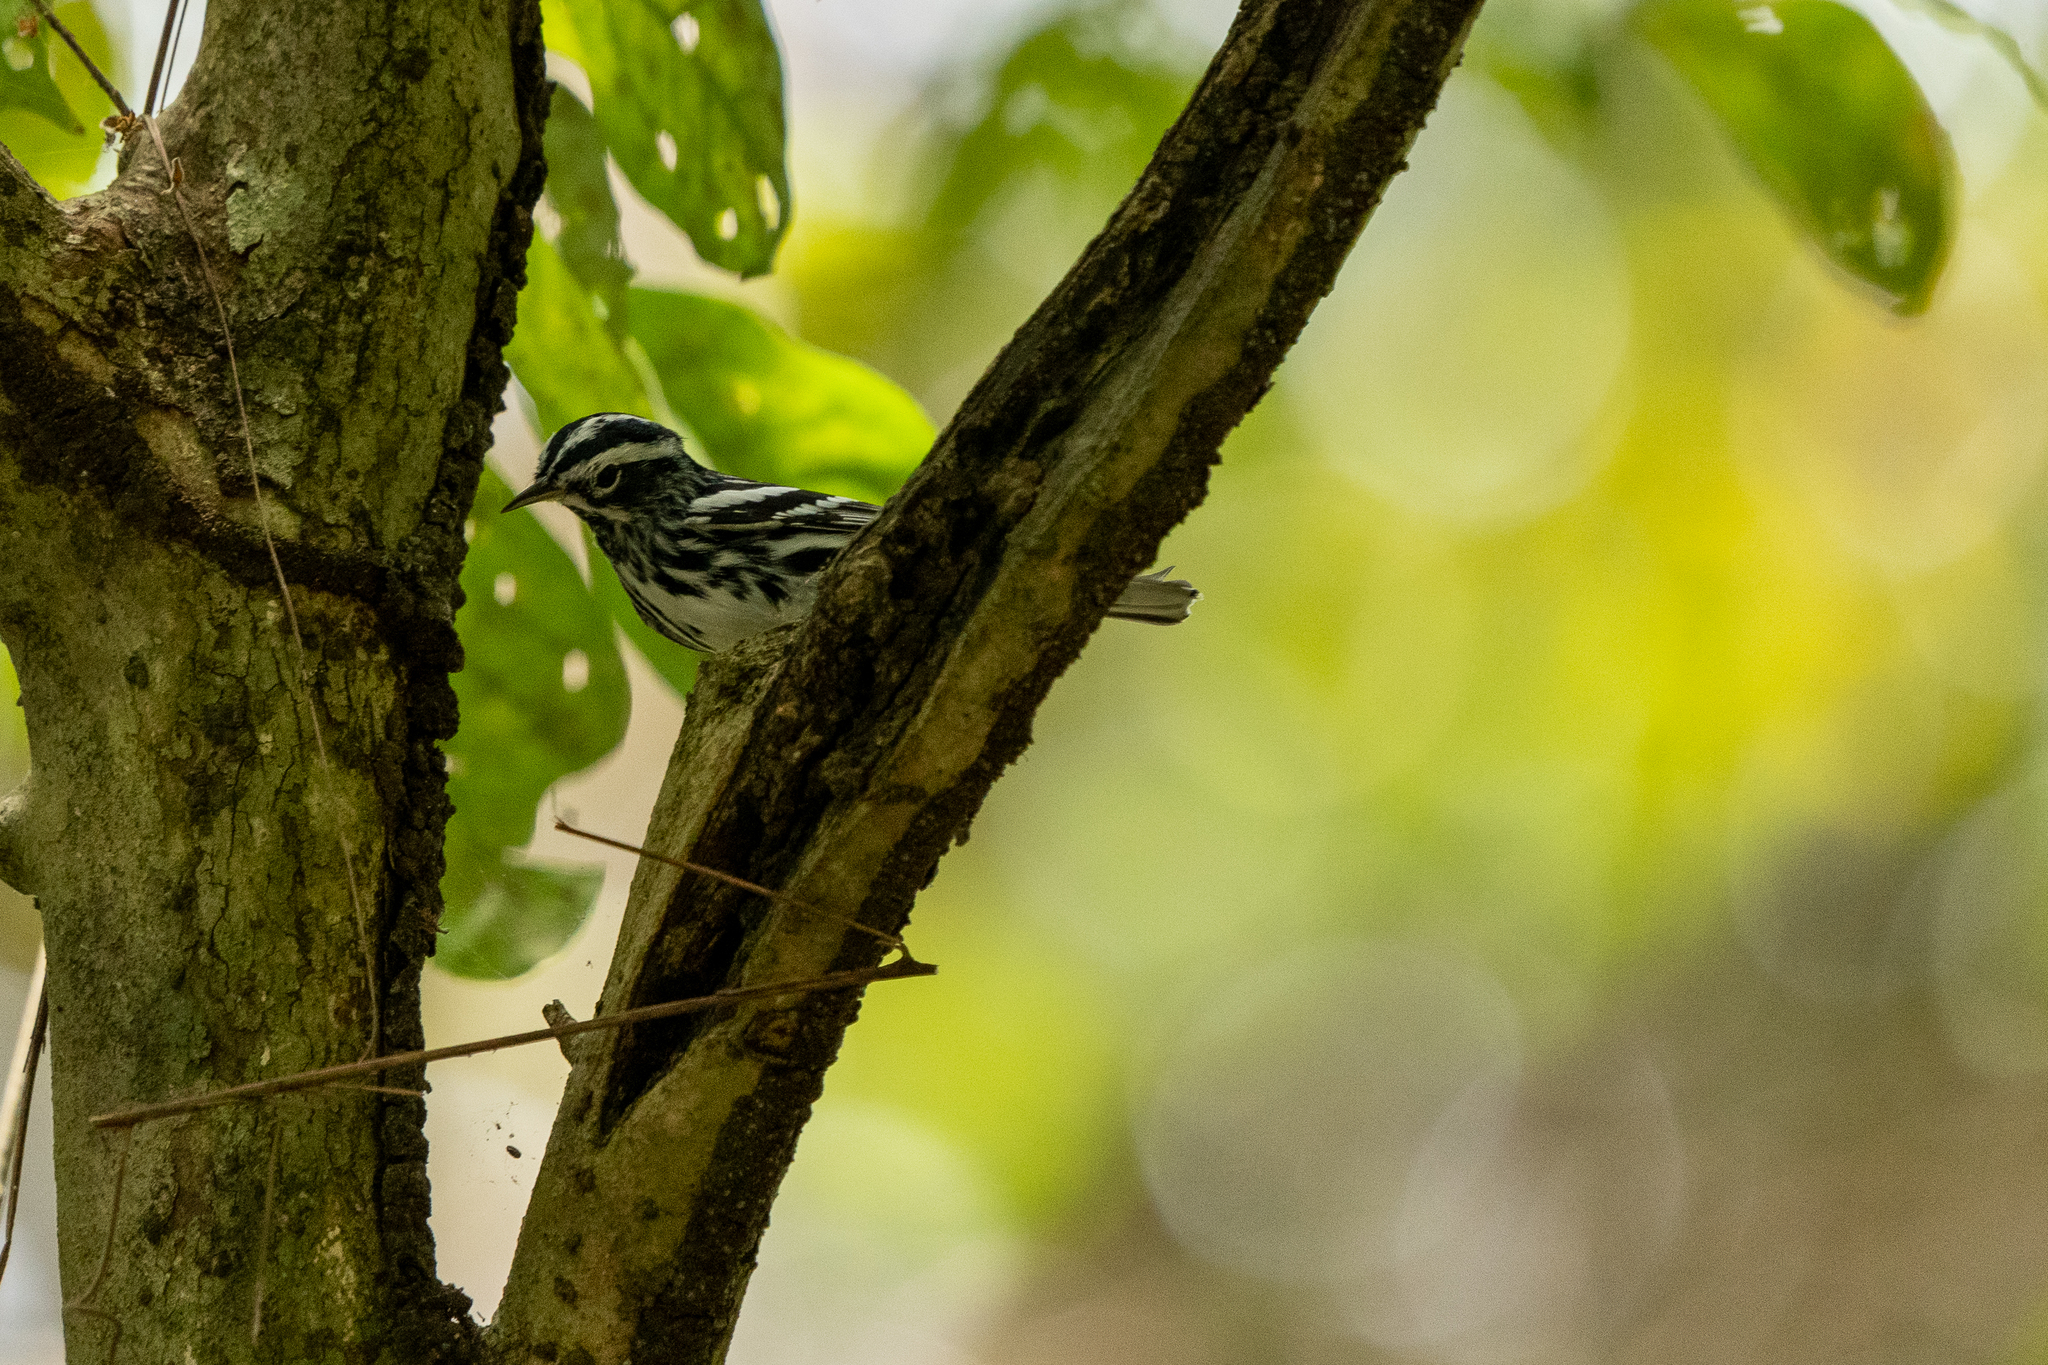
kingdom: Animalia
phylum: Chordata
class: Aves
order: Passeriformes
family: Parulidae
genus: Mniotilta
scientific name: Mniotilta varia
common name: Black-and-white warbler
